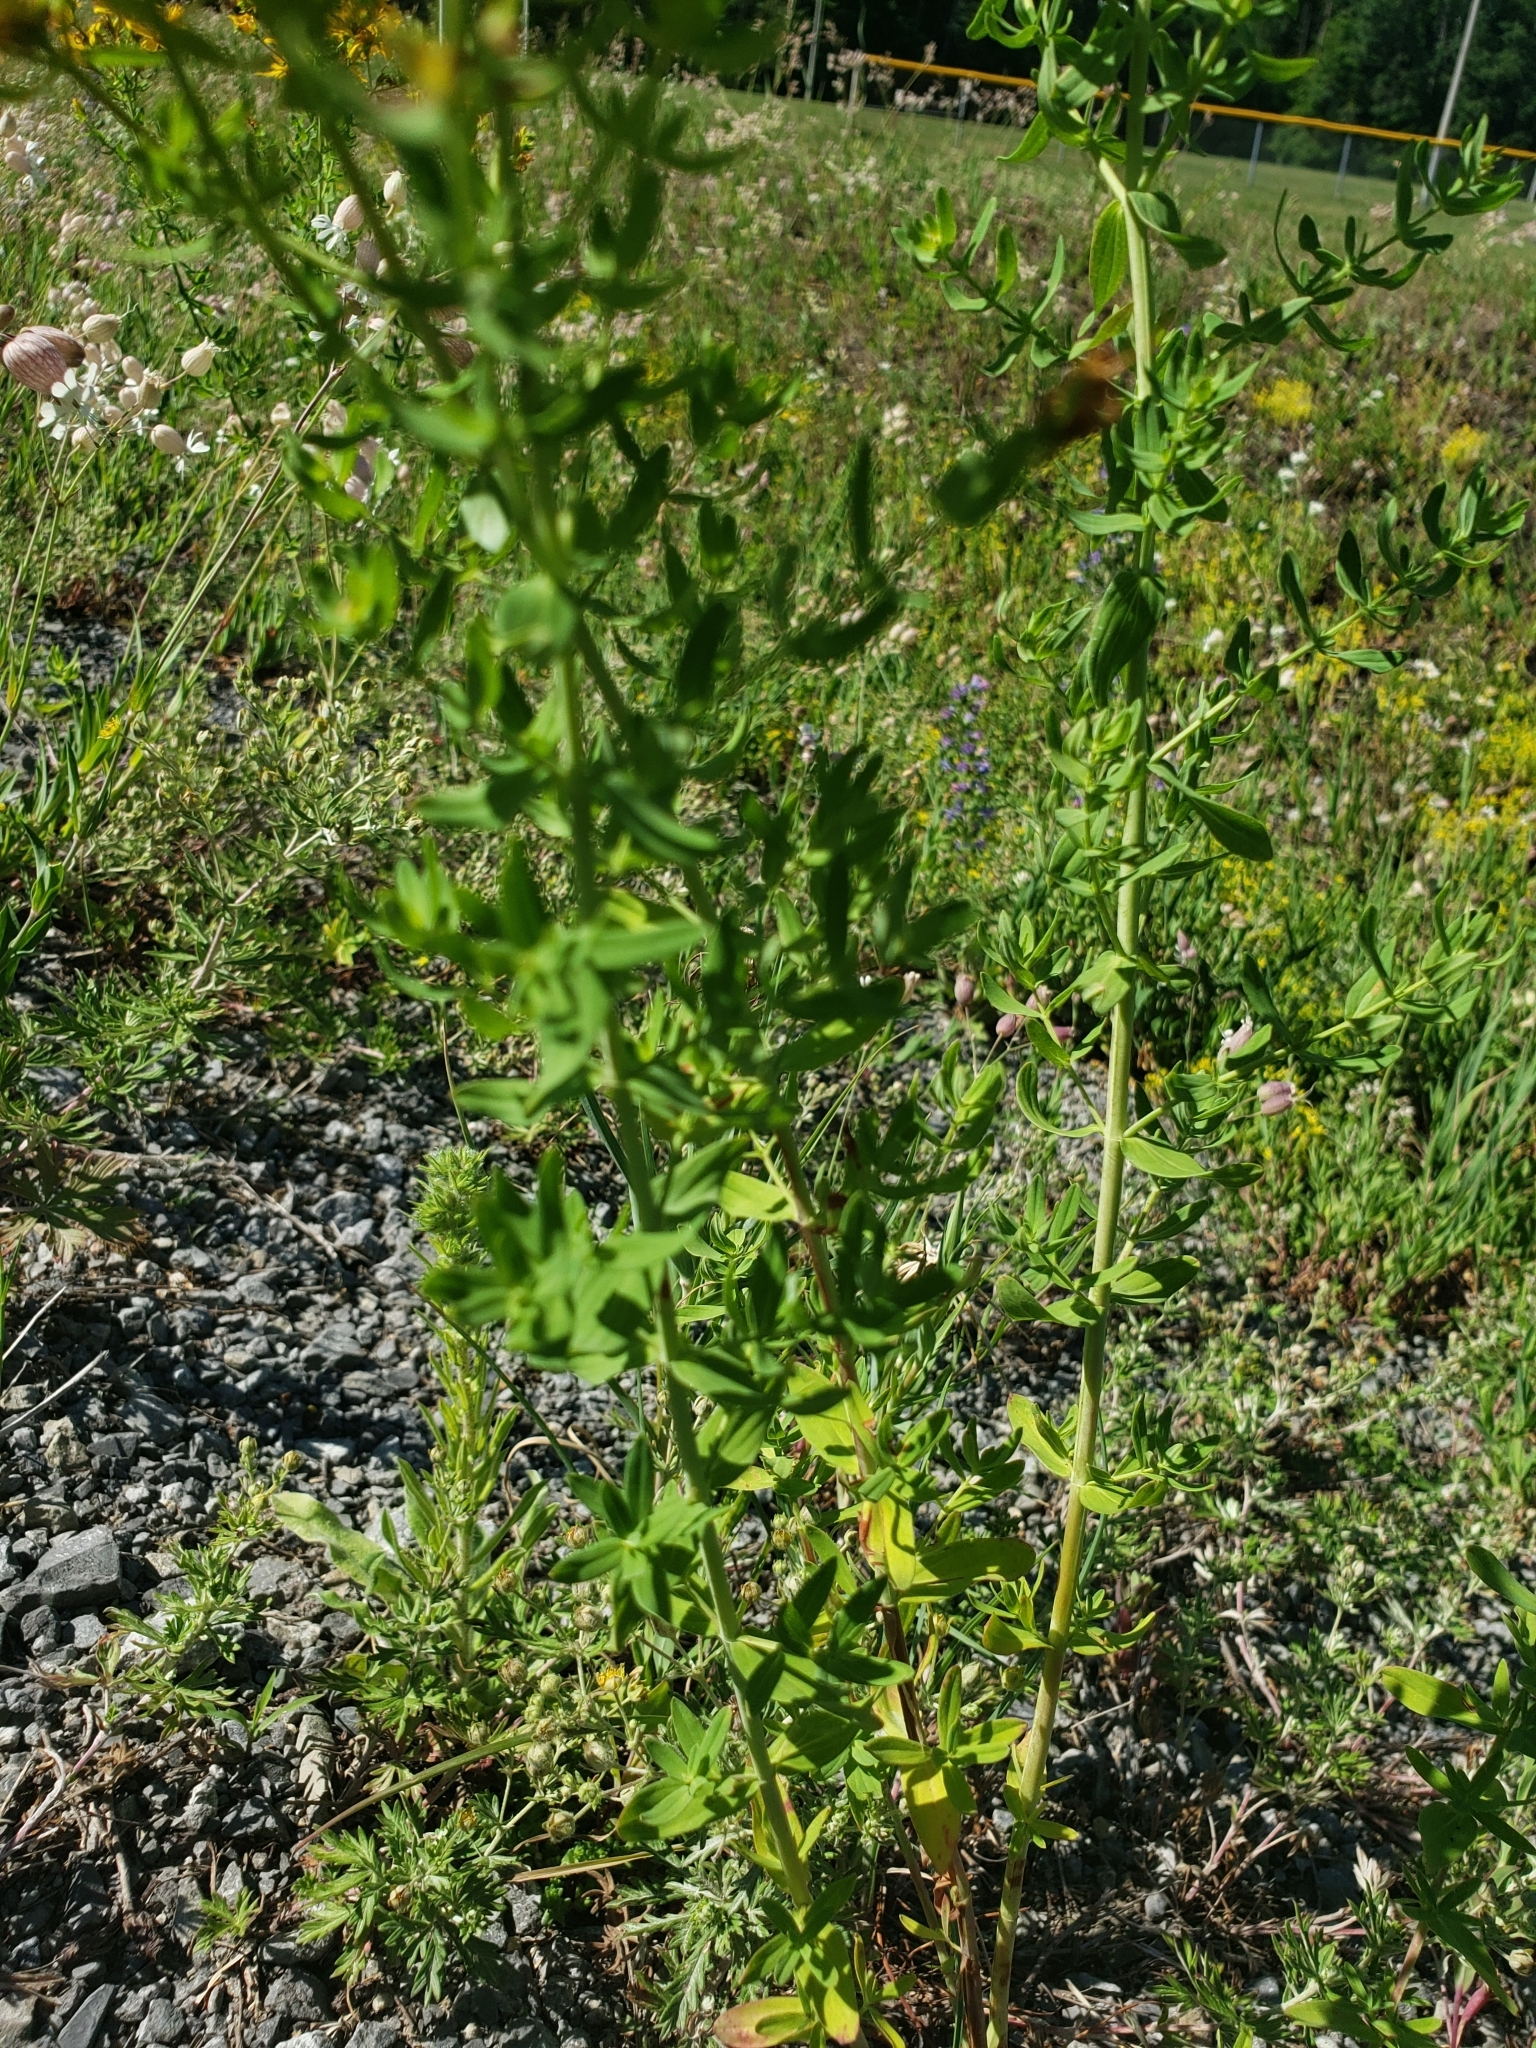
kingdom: Plantae
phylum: Tracheophyta
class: Magnoliopsida
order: Malpighiales
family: Hypericaceae
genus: Hypericum
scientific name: Hypericum perforatum
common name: Common st. johnswort
